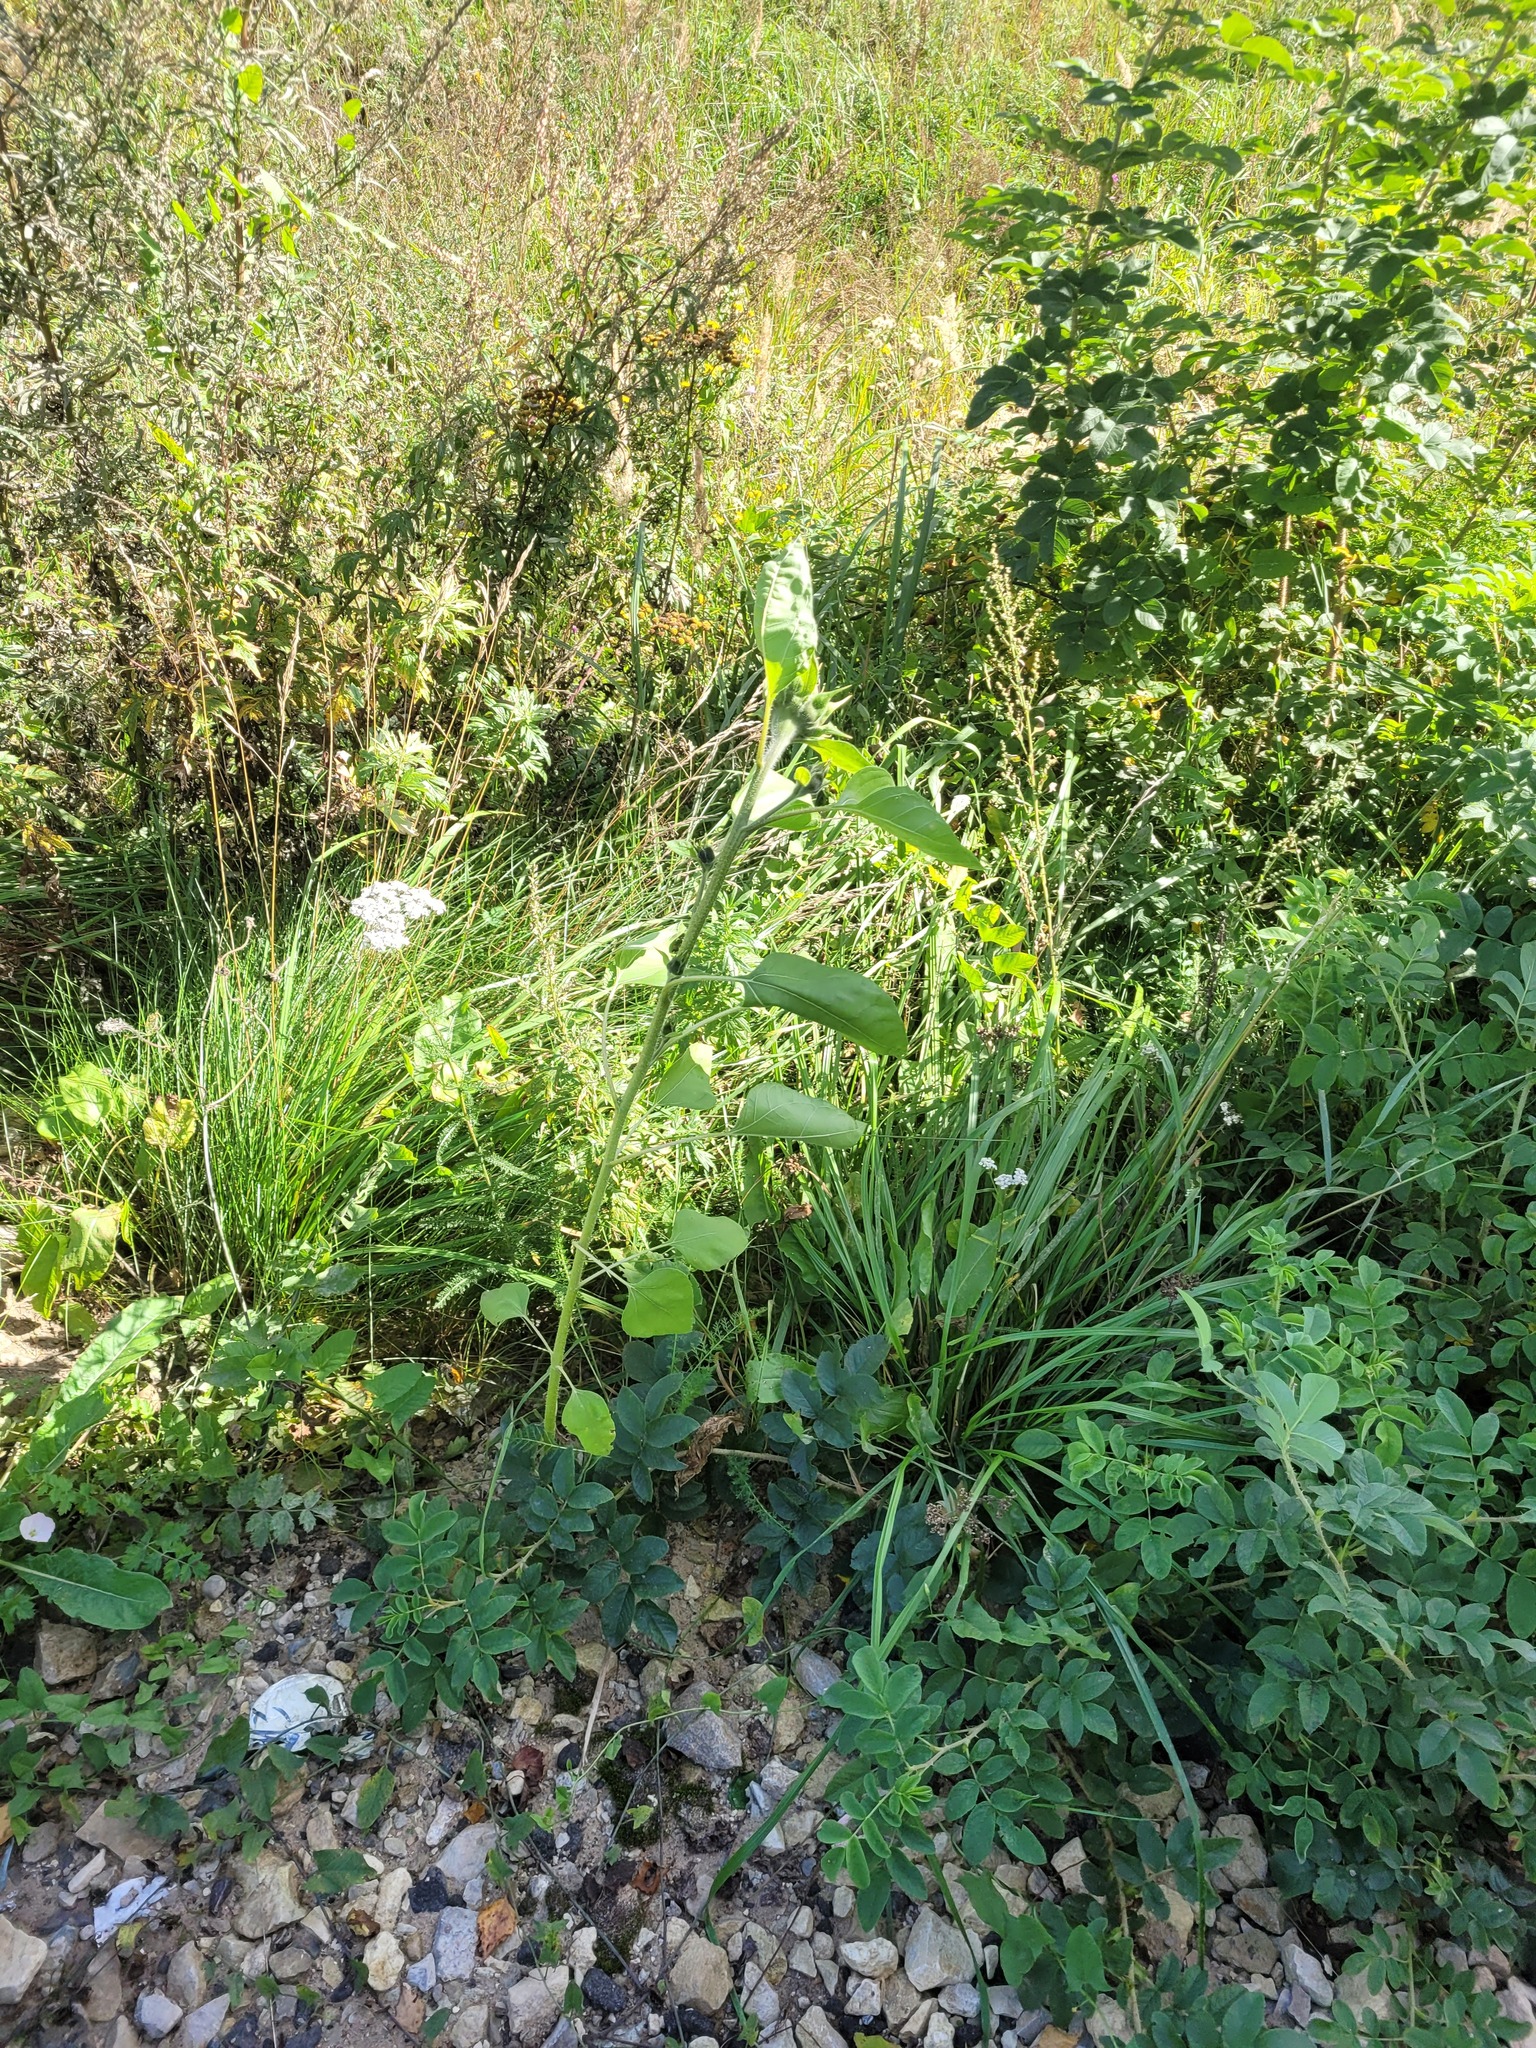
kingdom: Plantae
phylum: Tracheophyta
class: Magnoliopsida
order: Asterales
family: Asteraceae
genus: Helianthus
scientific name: Helianthus annuus
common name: Sunflower
